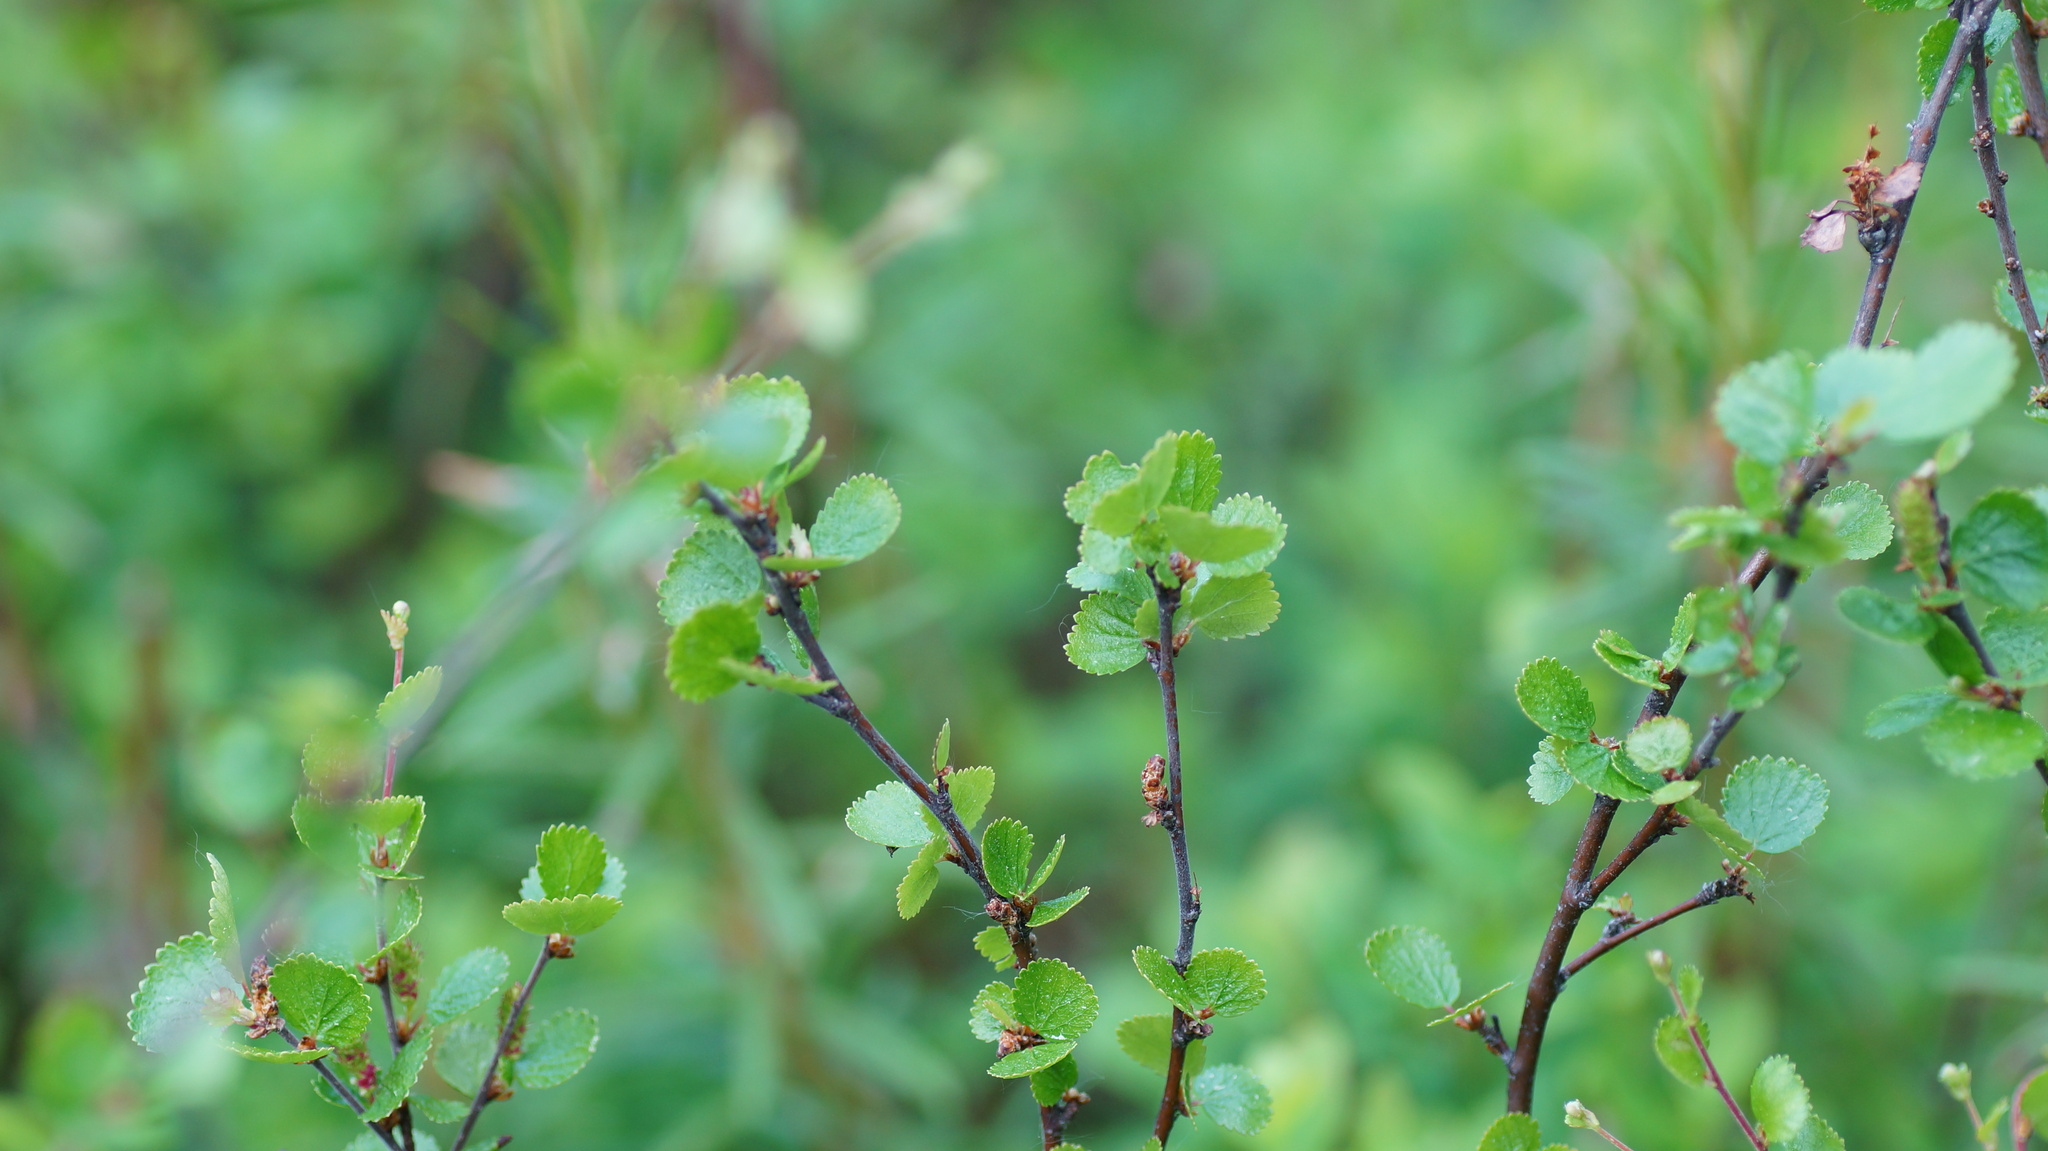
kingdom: Plantae
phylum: Tracheophyta
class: Magnoliopsida
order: Fagales
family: Betulaceae
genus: Betula
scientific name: Betula nana
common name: Arctic dwarf birch
